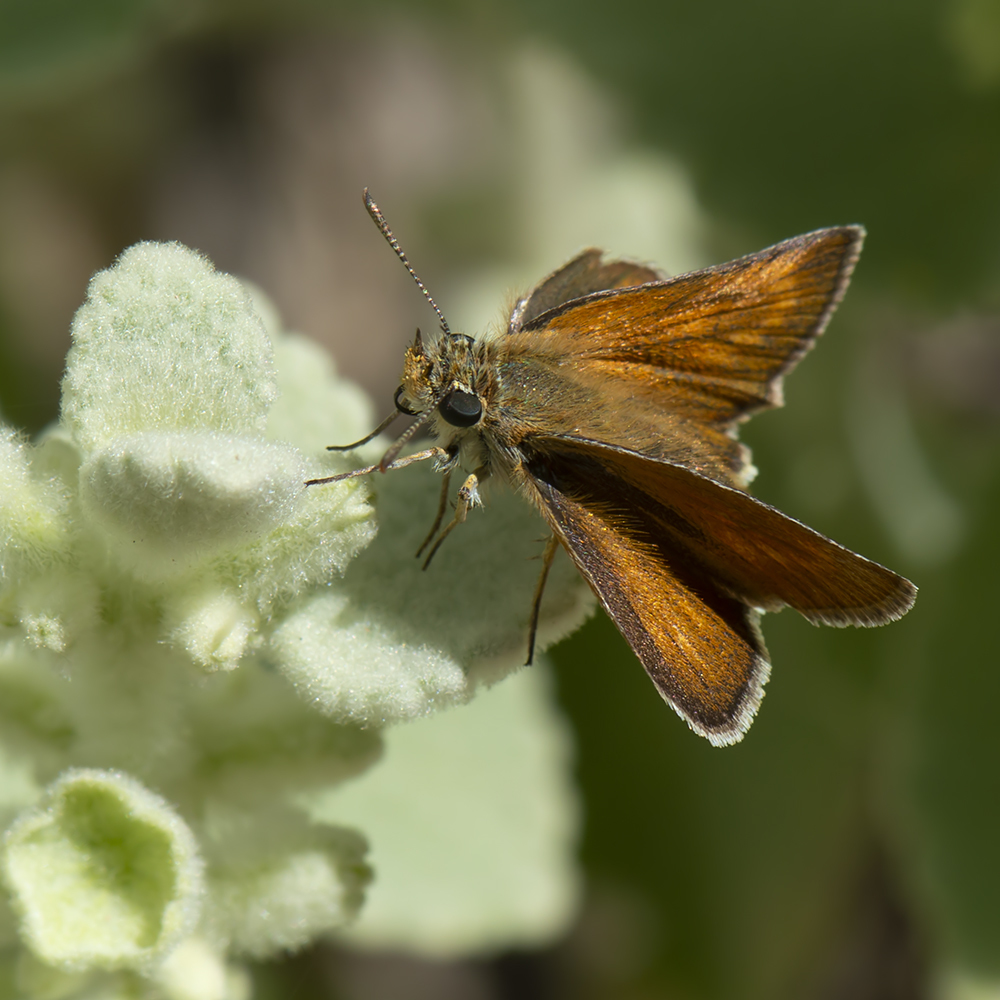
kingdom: Animalia
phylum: Arthropoda
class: Insecta
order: Lepidoptera
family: Hesperiidae
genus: Thymelicus
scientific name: Thymelicus acteon
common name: Lulworth skipper
